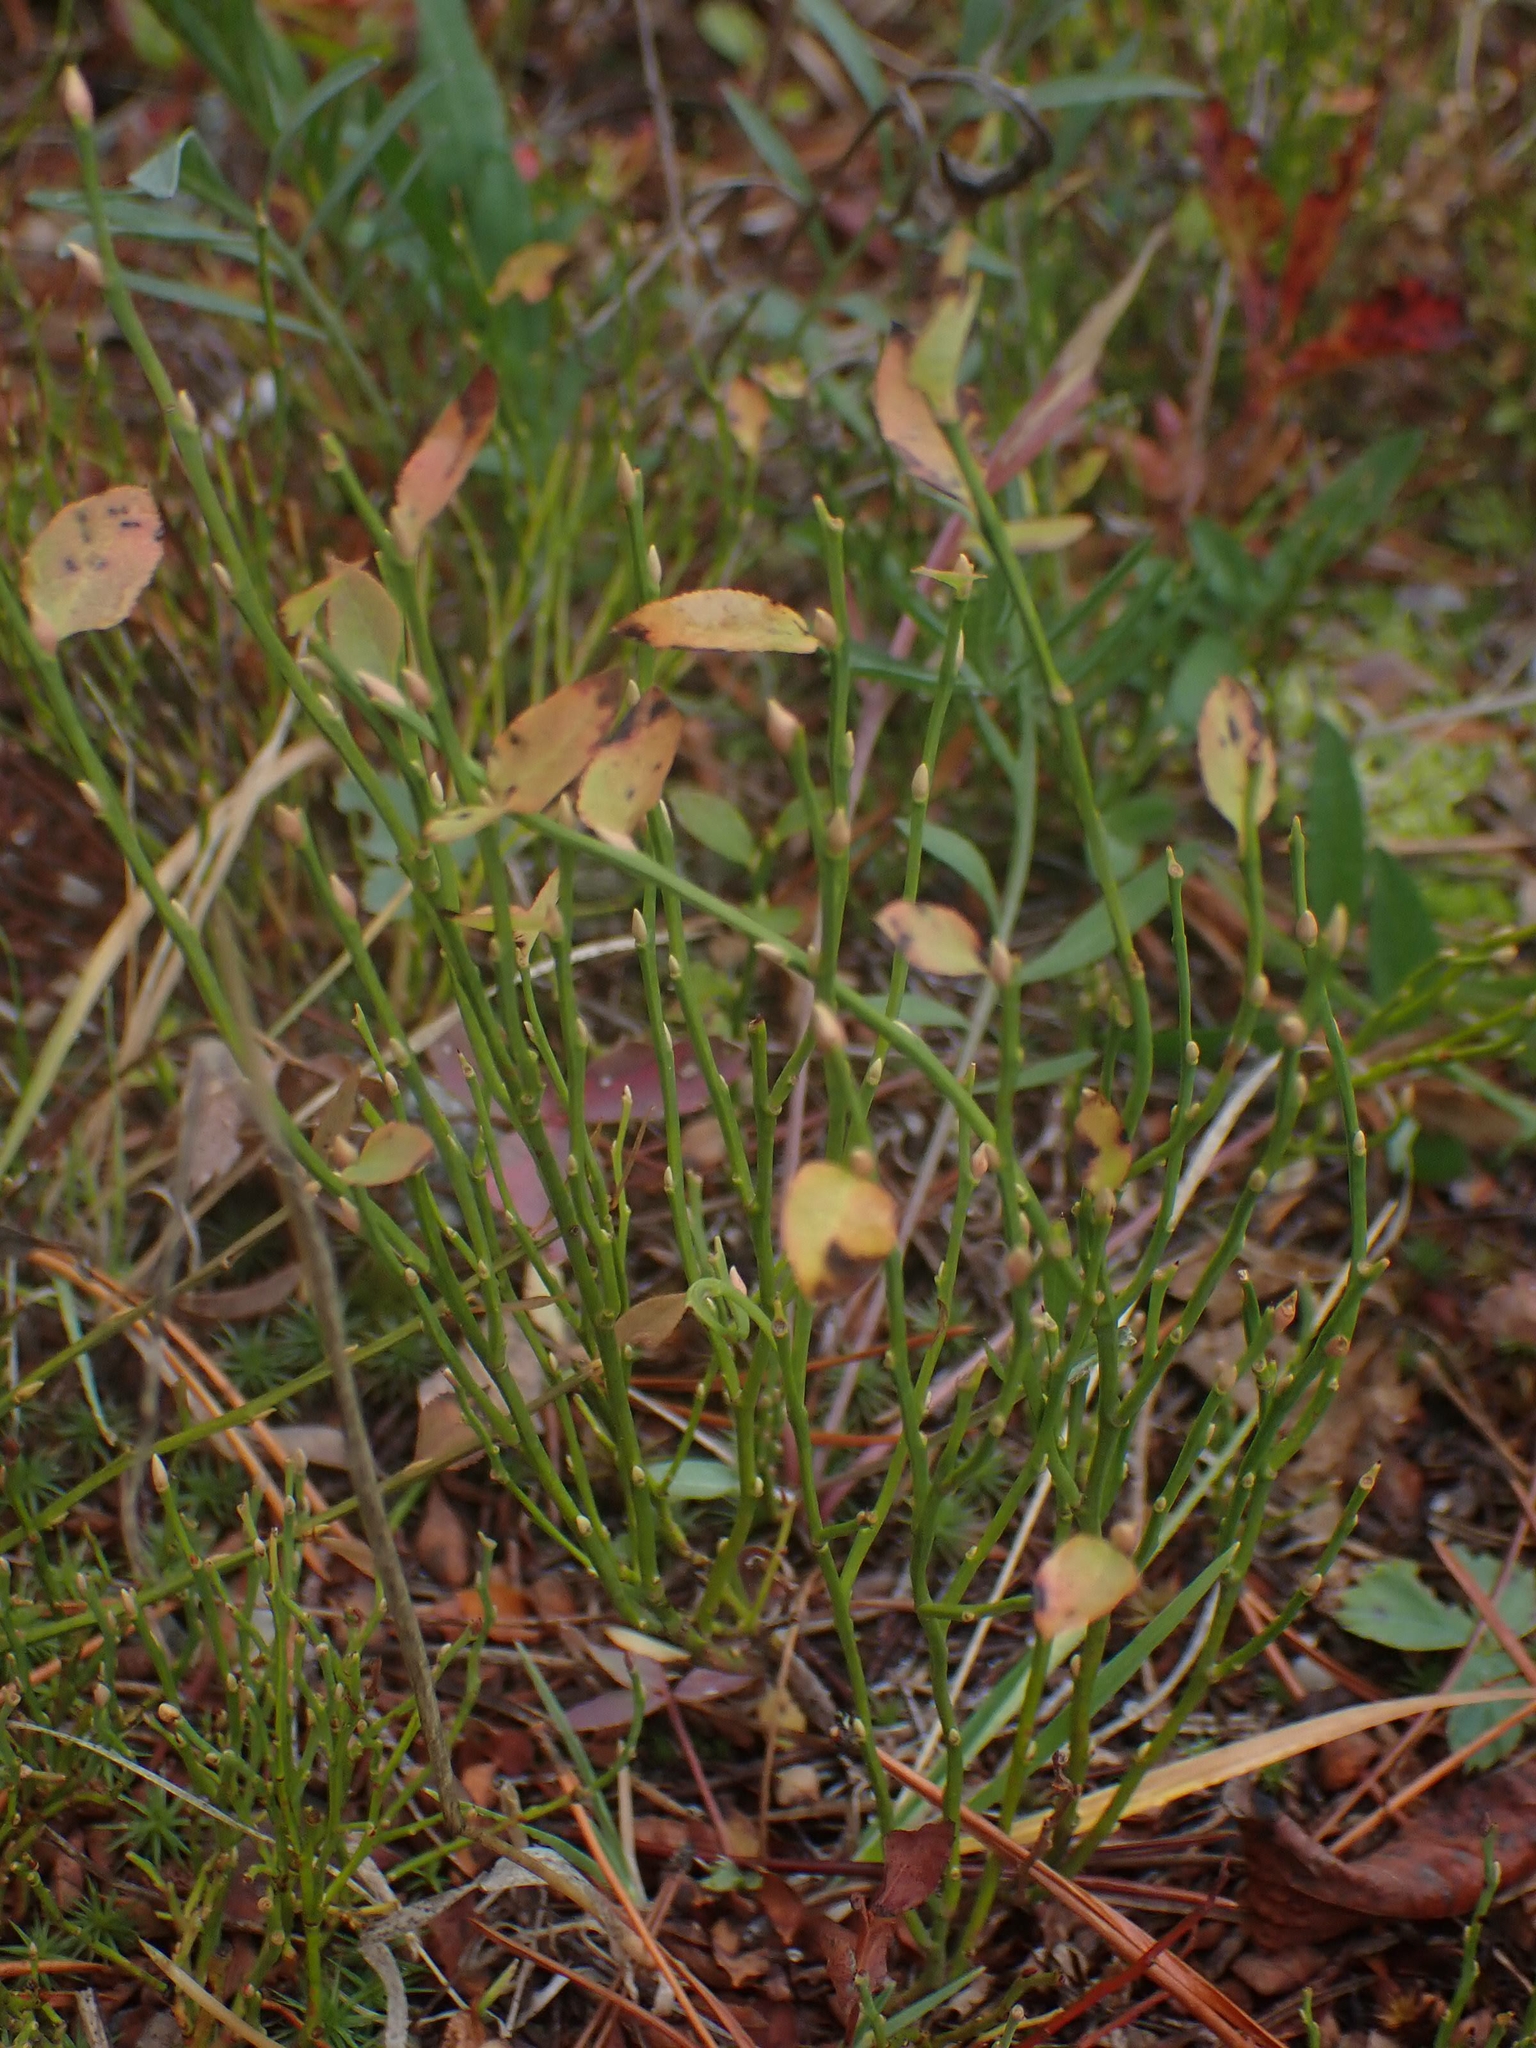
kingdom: Plantae
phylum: Tracheophyta
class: Magnoliopsida
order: Ericales
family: Ericaceae
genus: Vaccinium
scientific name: Vaccinium scoparium
